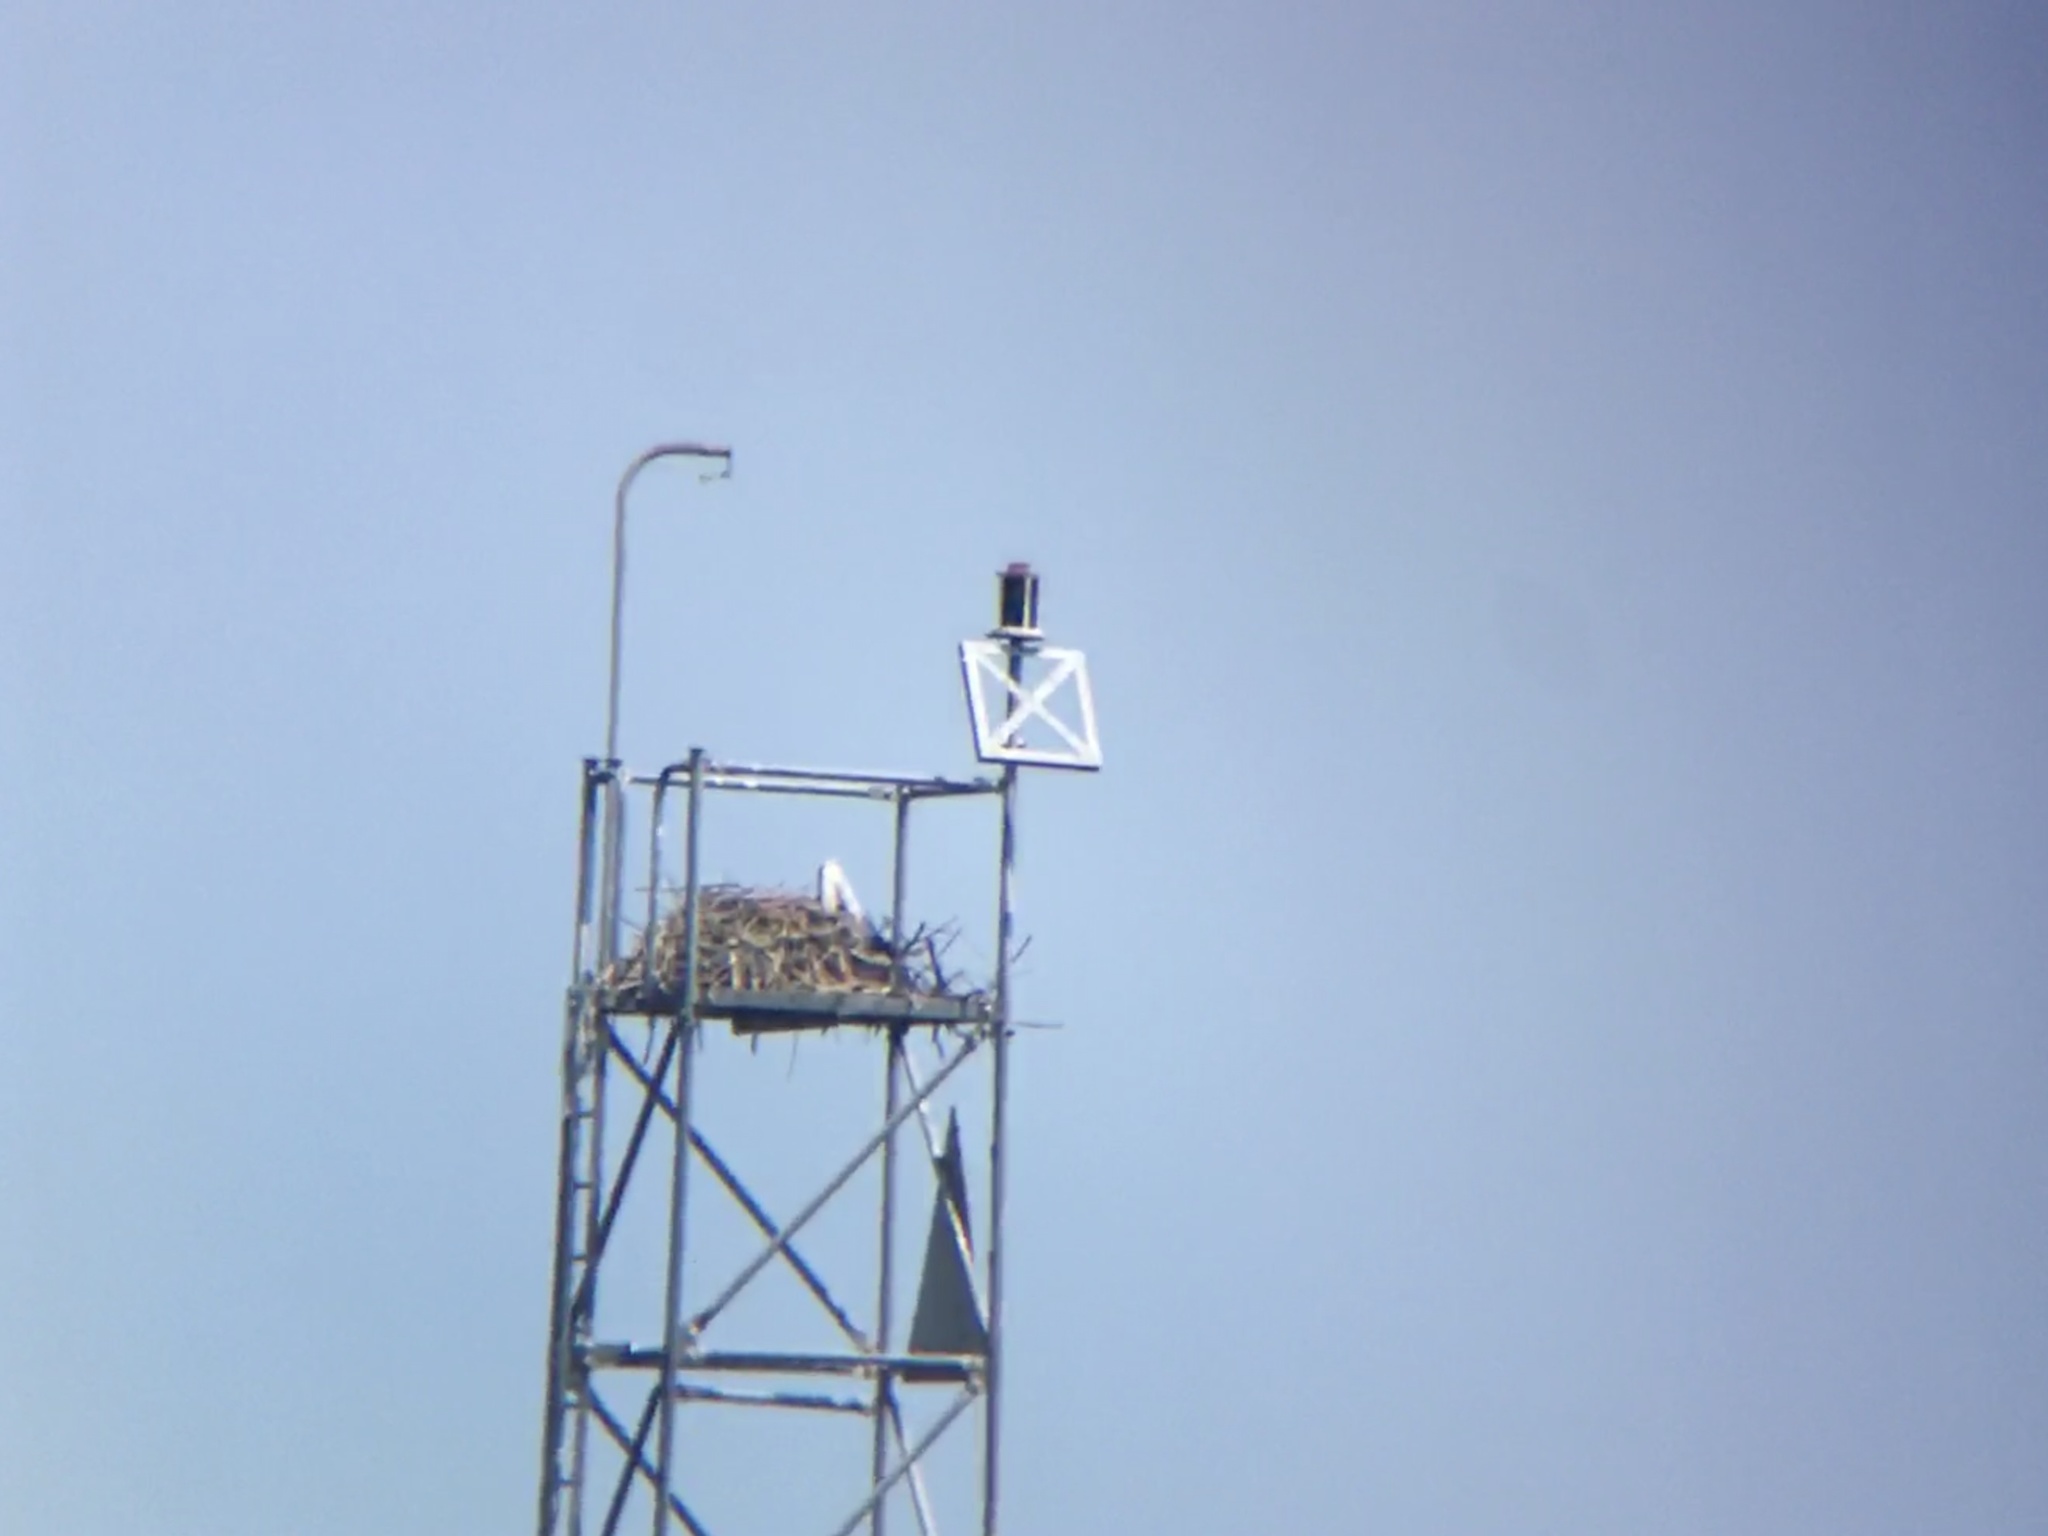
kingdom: Animalia
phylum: Chordata
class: Aves
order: Accipitriformes
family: Pandionidae
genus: Pandion
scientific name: Pandion haliaetus
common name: Osprey
